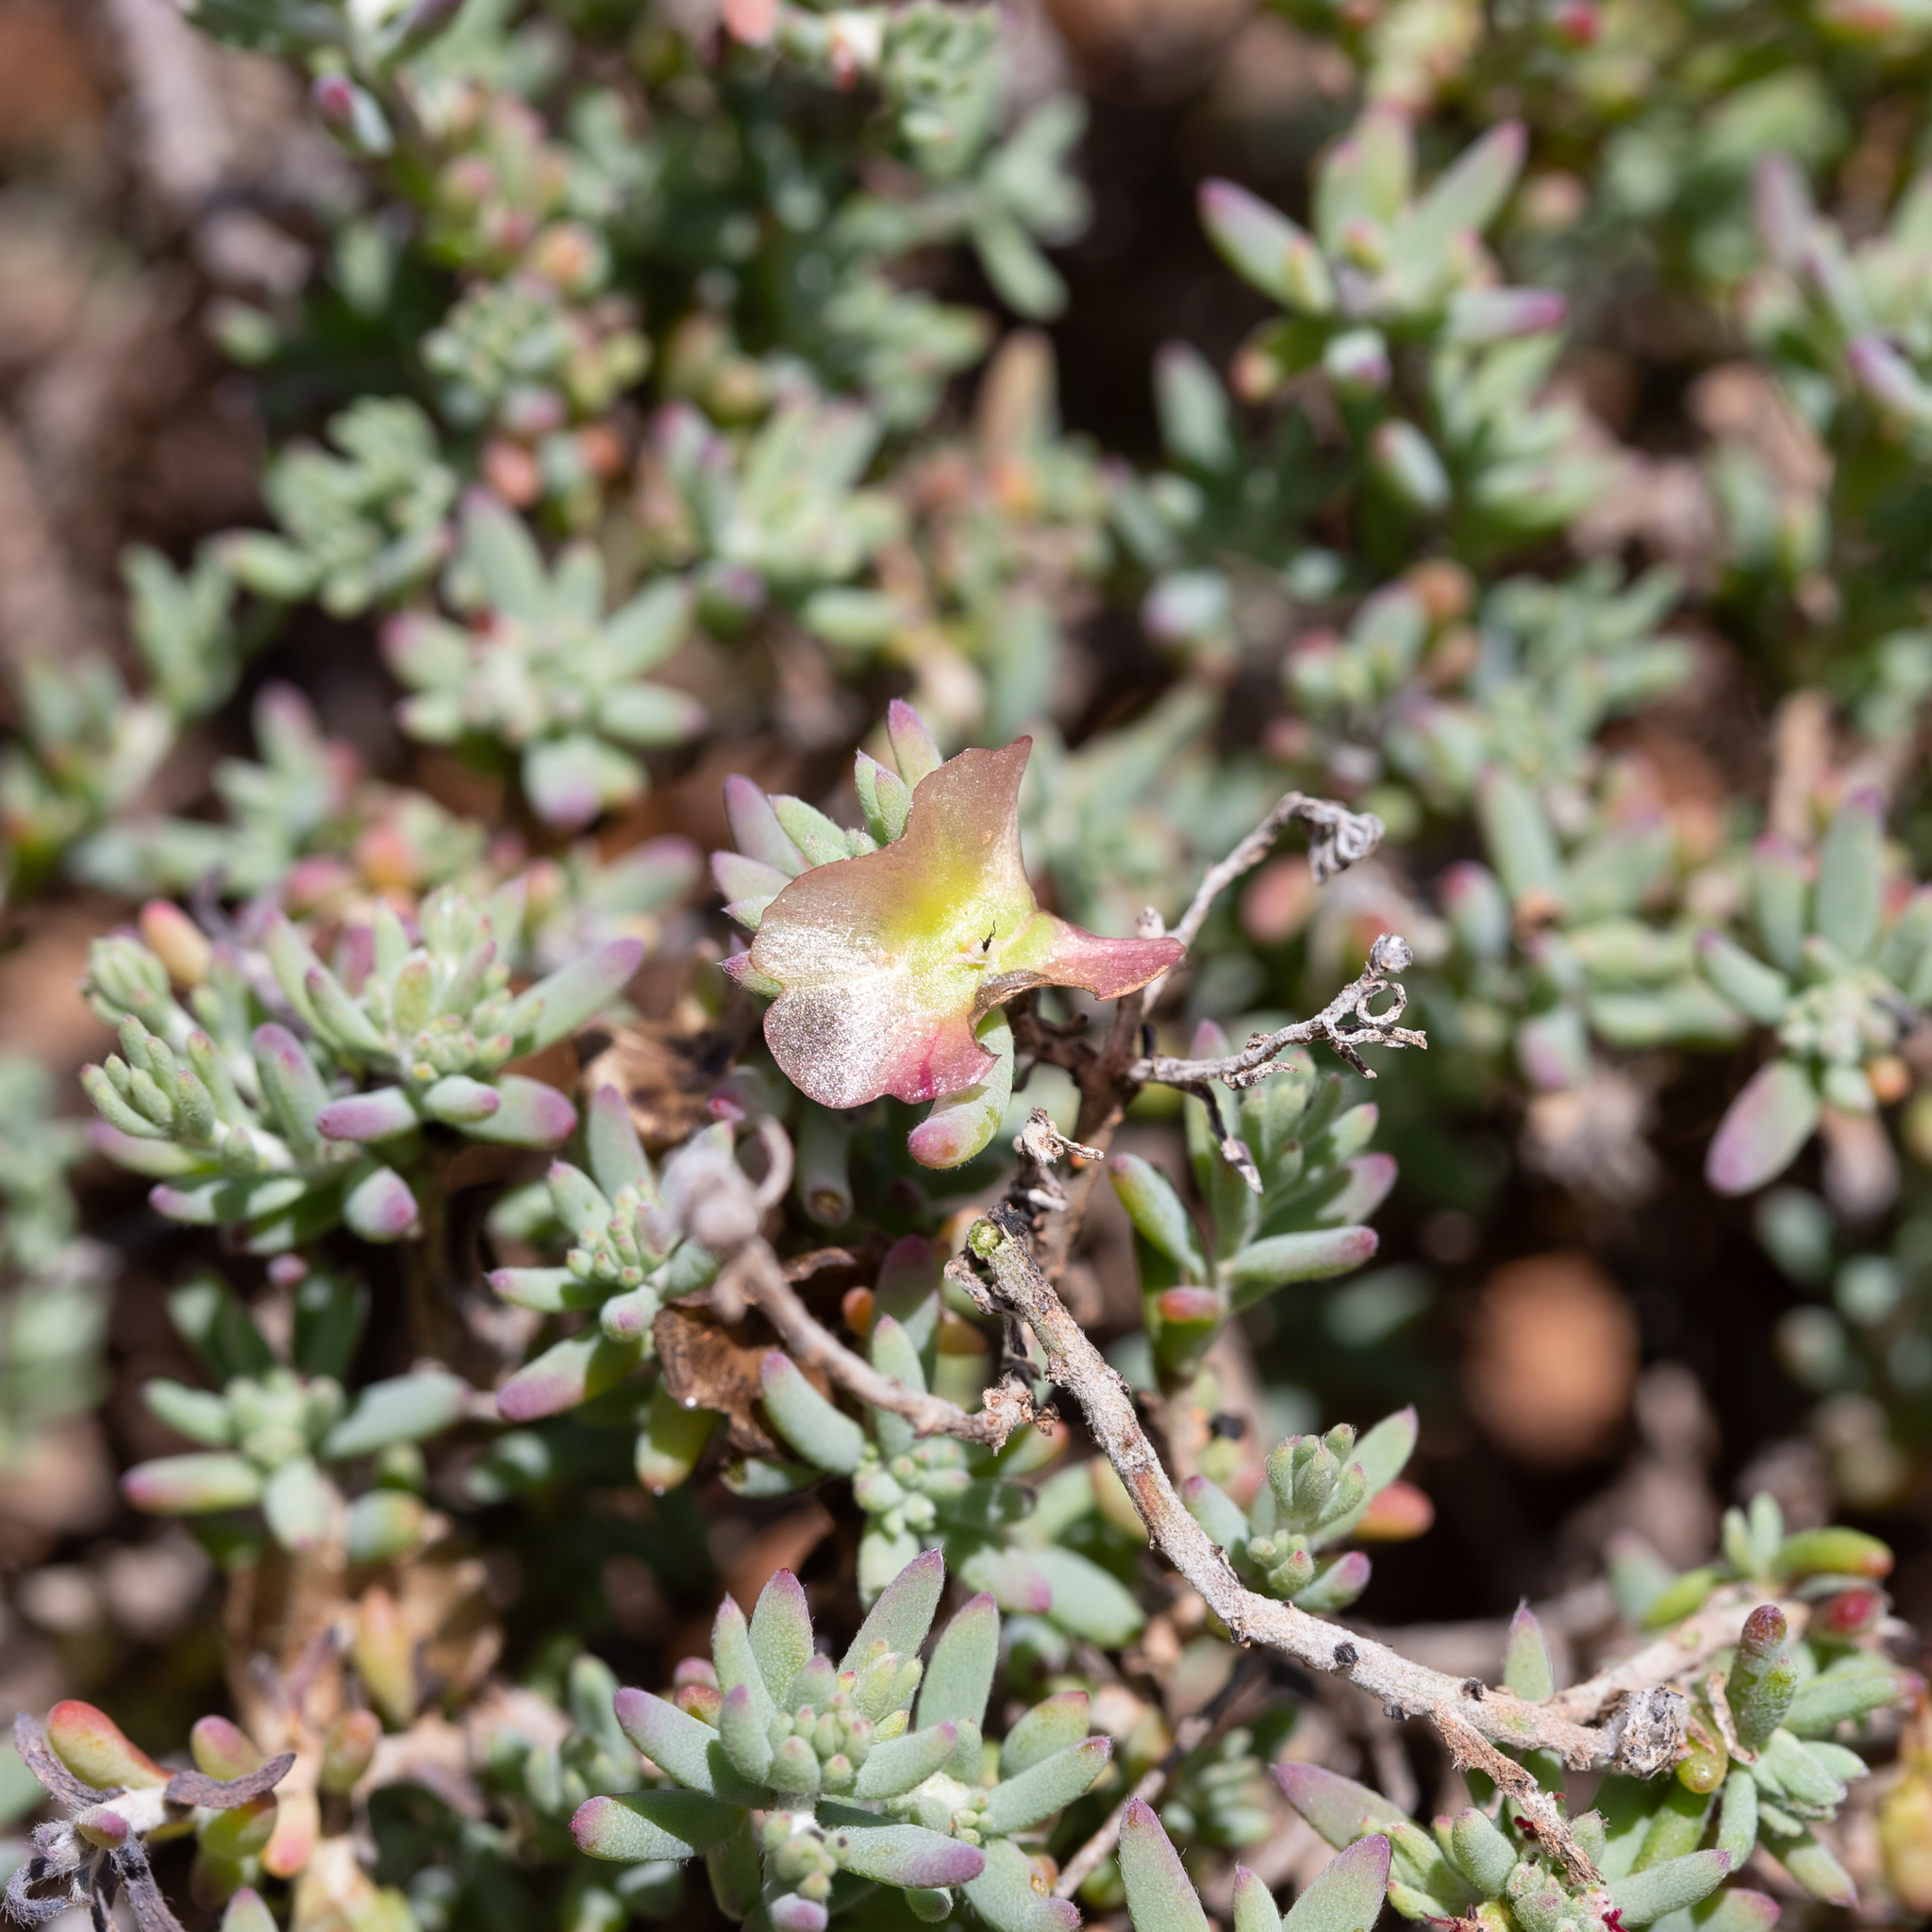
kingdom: Plantae
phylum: Tracheophyta
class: Magnoliopsida
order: Caryophyllales
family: Amaranthaceae
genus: Maireana
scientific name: Maireana turbinata
